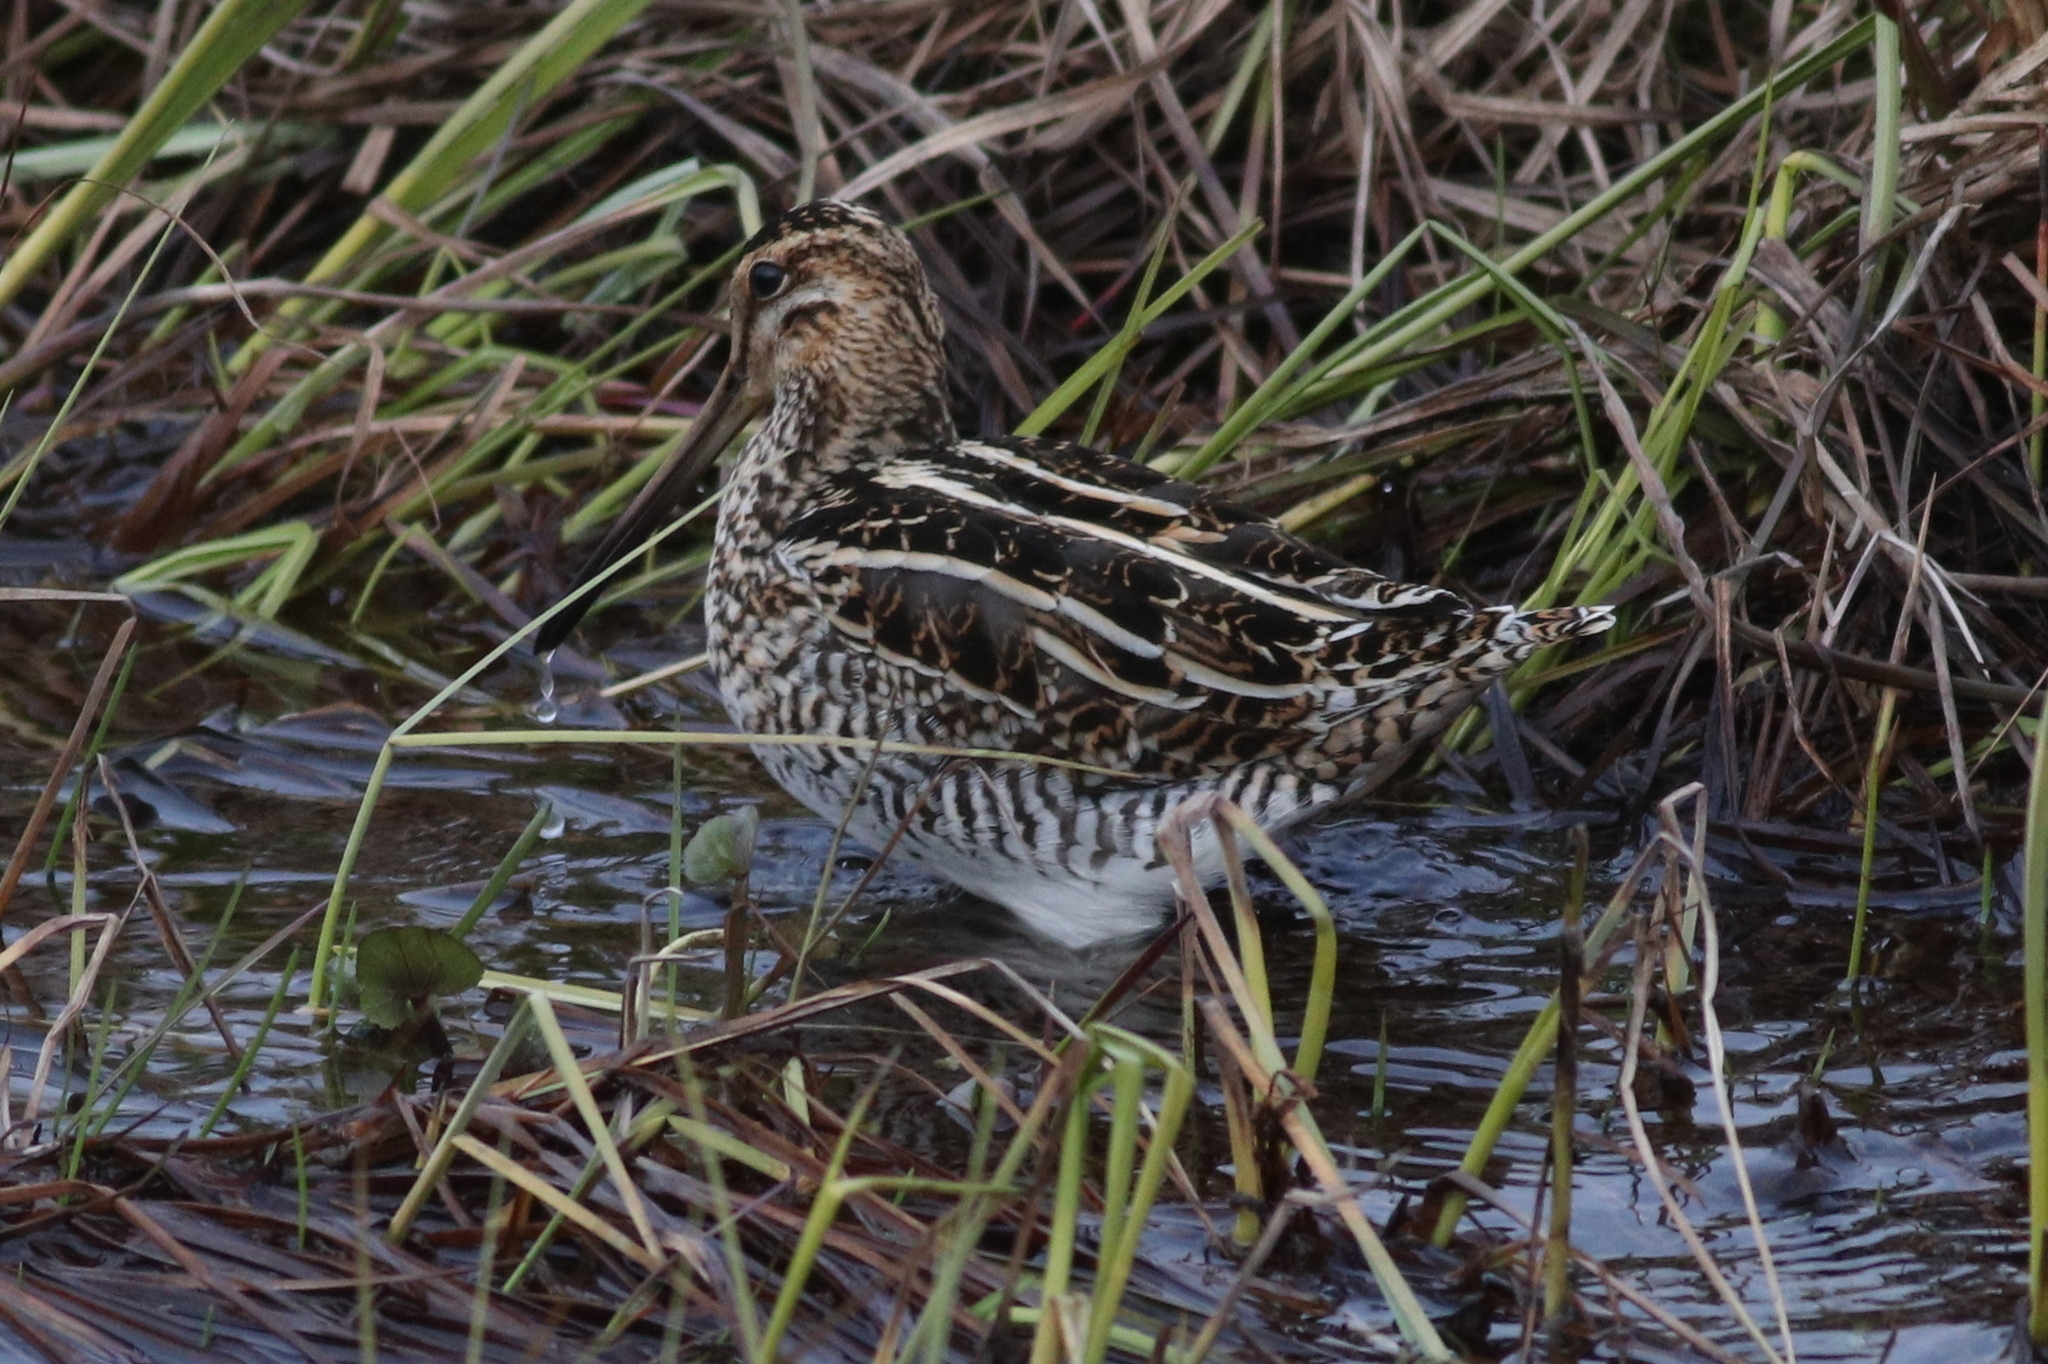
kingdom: Animalia
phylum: Chordata
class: Aves
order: Charadriiformes
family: Scolopacidae
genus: Gallinago
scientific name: Gallinago gallinago
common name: Common snipe
